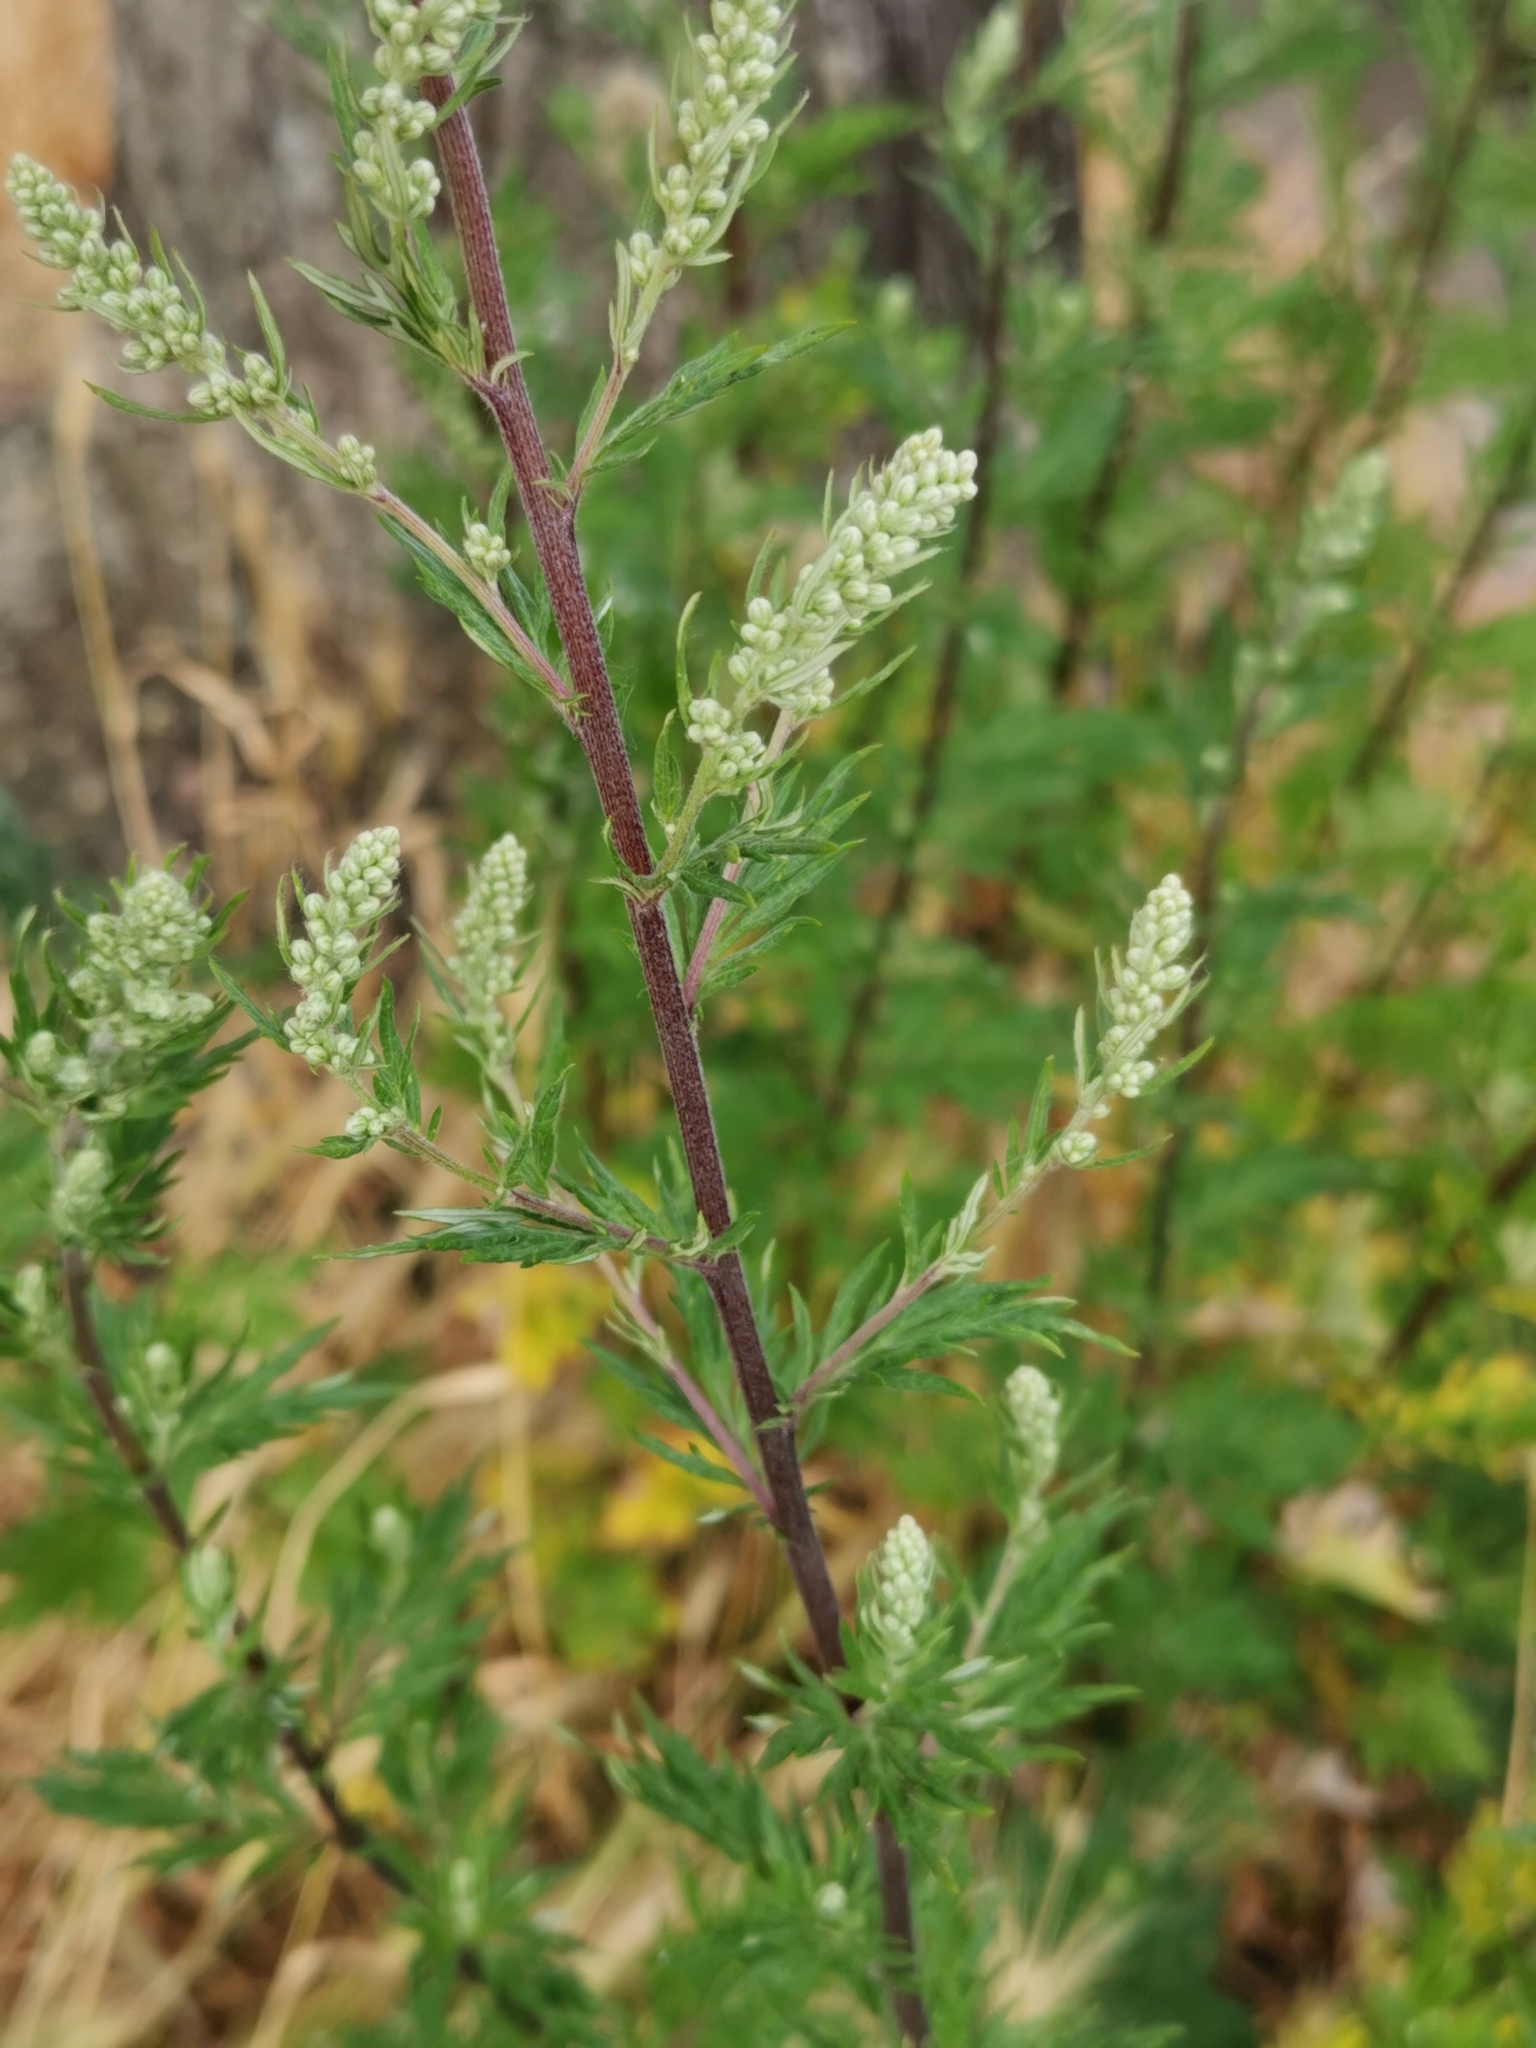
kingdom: Plantae
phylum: Tracheophyta
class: Magnoliopsida
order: Asterales
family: Asteraceae
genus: Artemisia
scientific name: Artemisia vulgaris
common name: Mugwort
